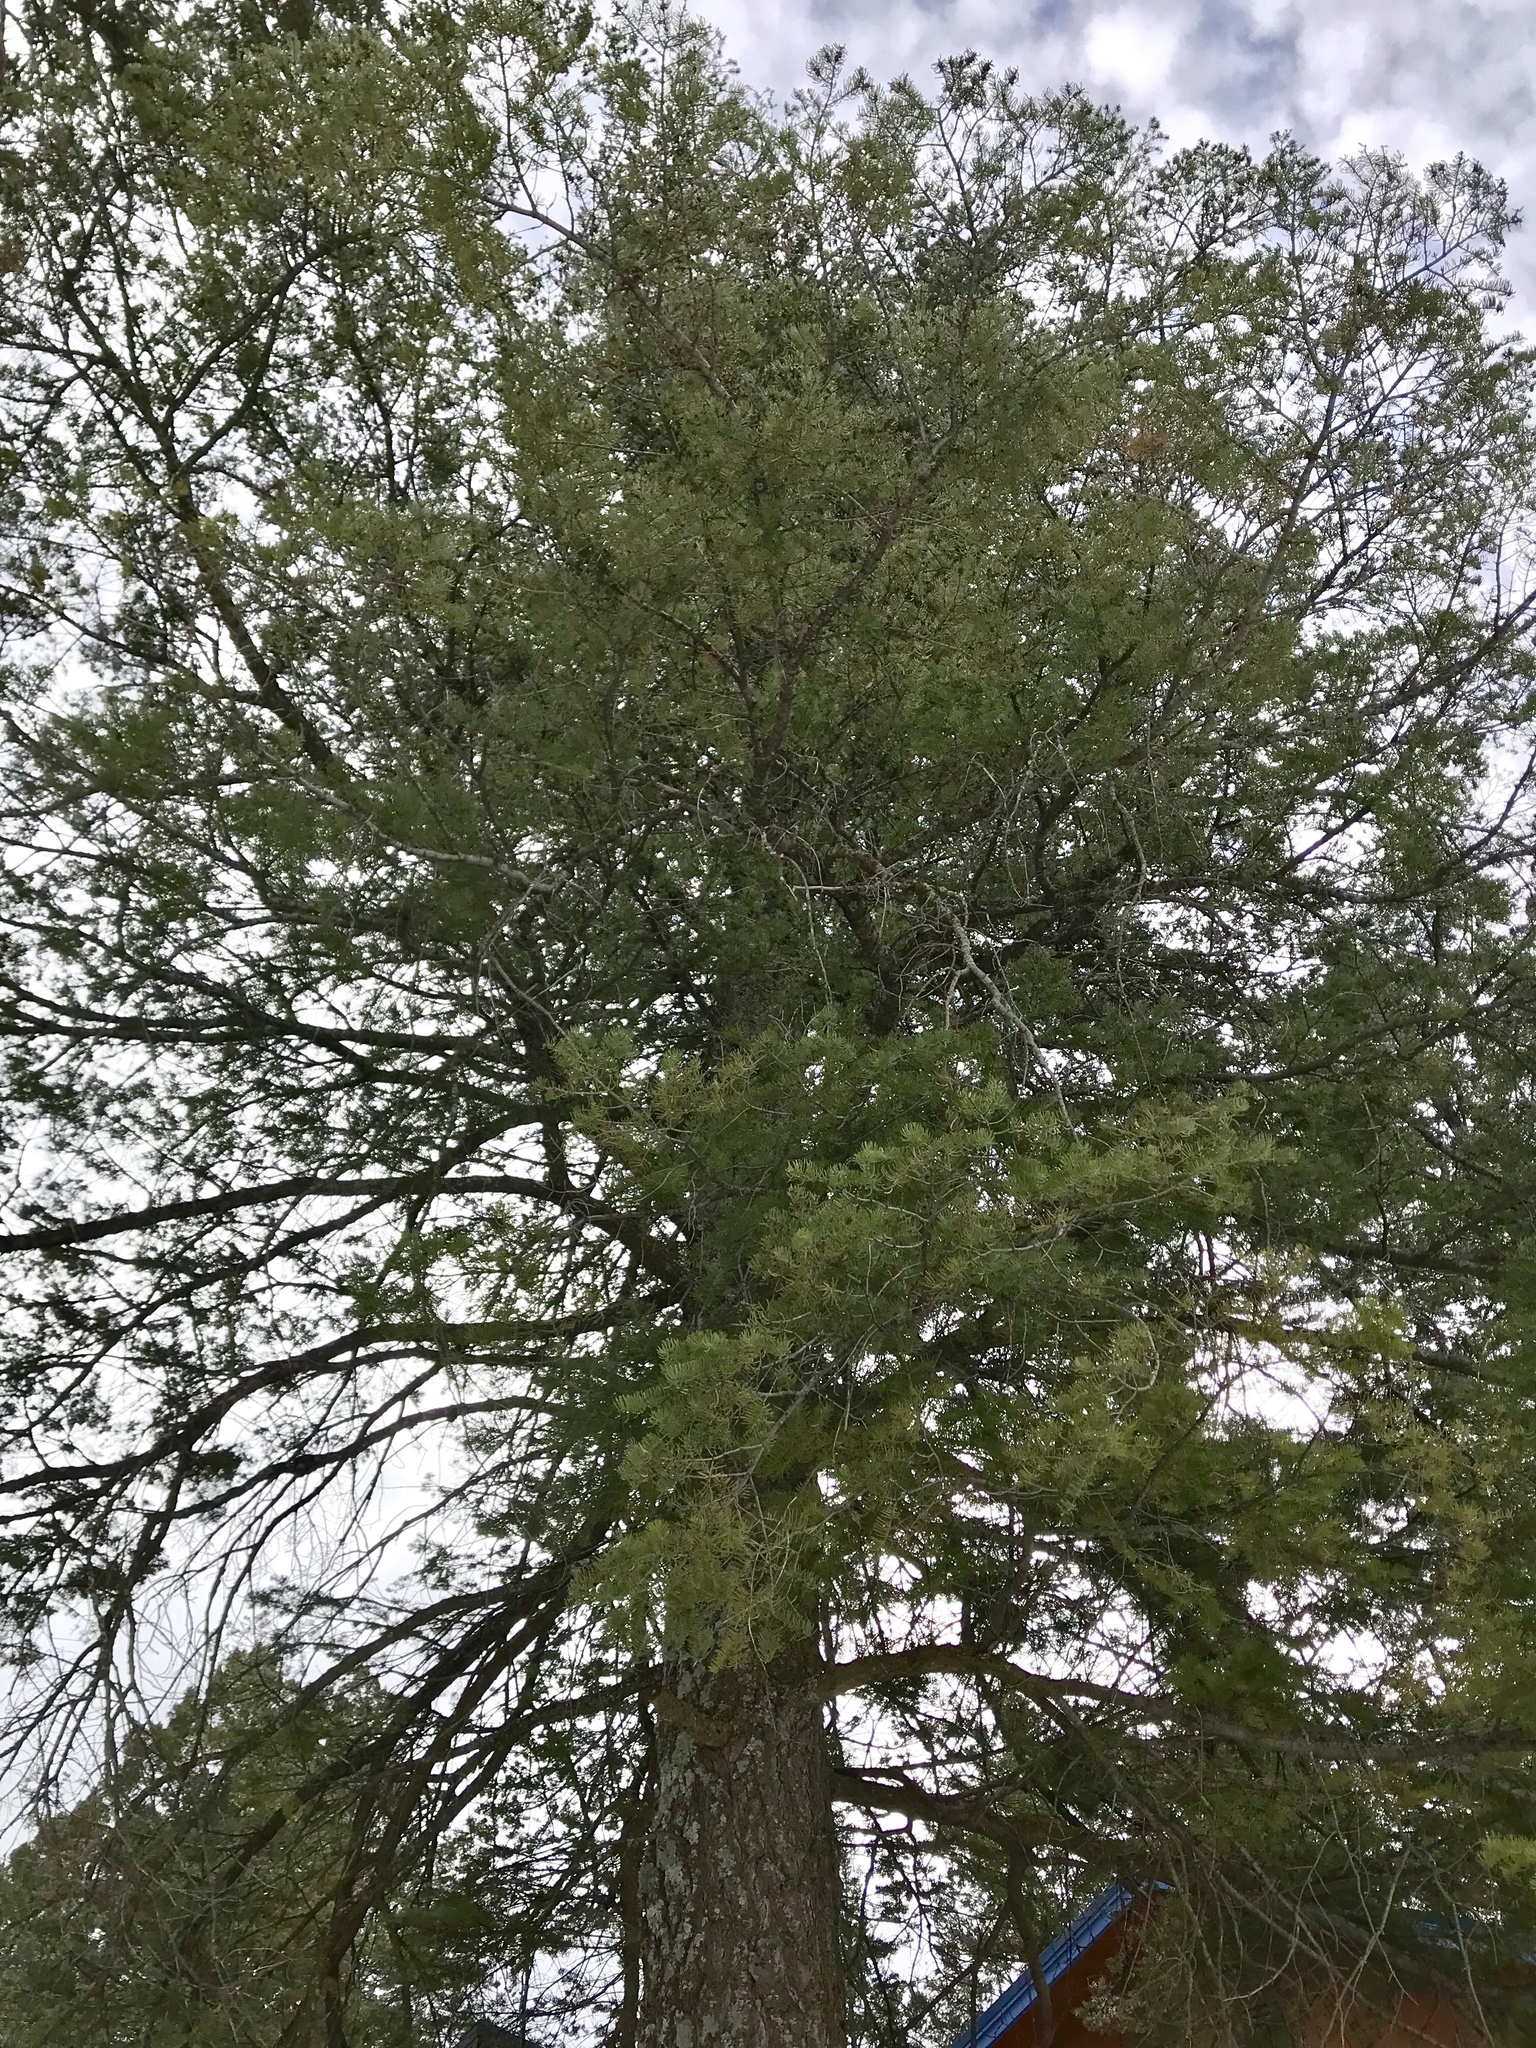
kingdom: Plantae
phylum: Tracheophyta
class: Pinopsida
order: Pinales
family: Pinaceae
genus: Pseudotsuga
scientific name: Pseudotsuga menziesii
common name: Douglas fir
